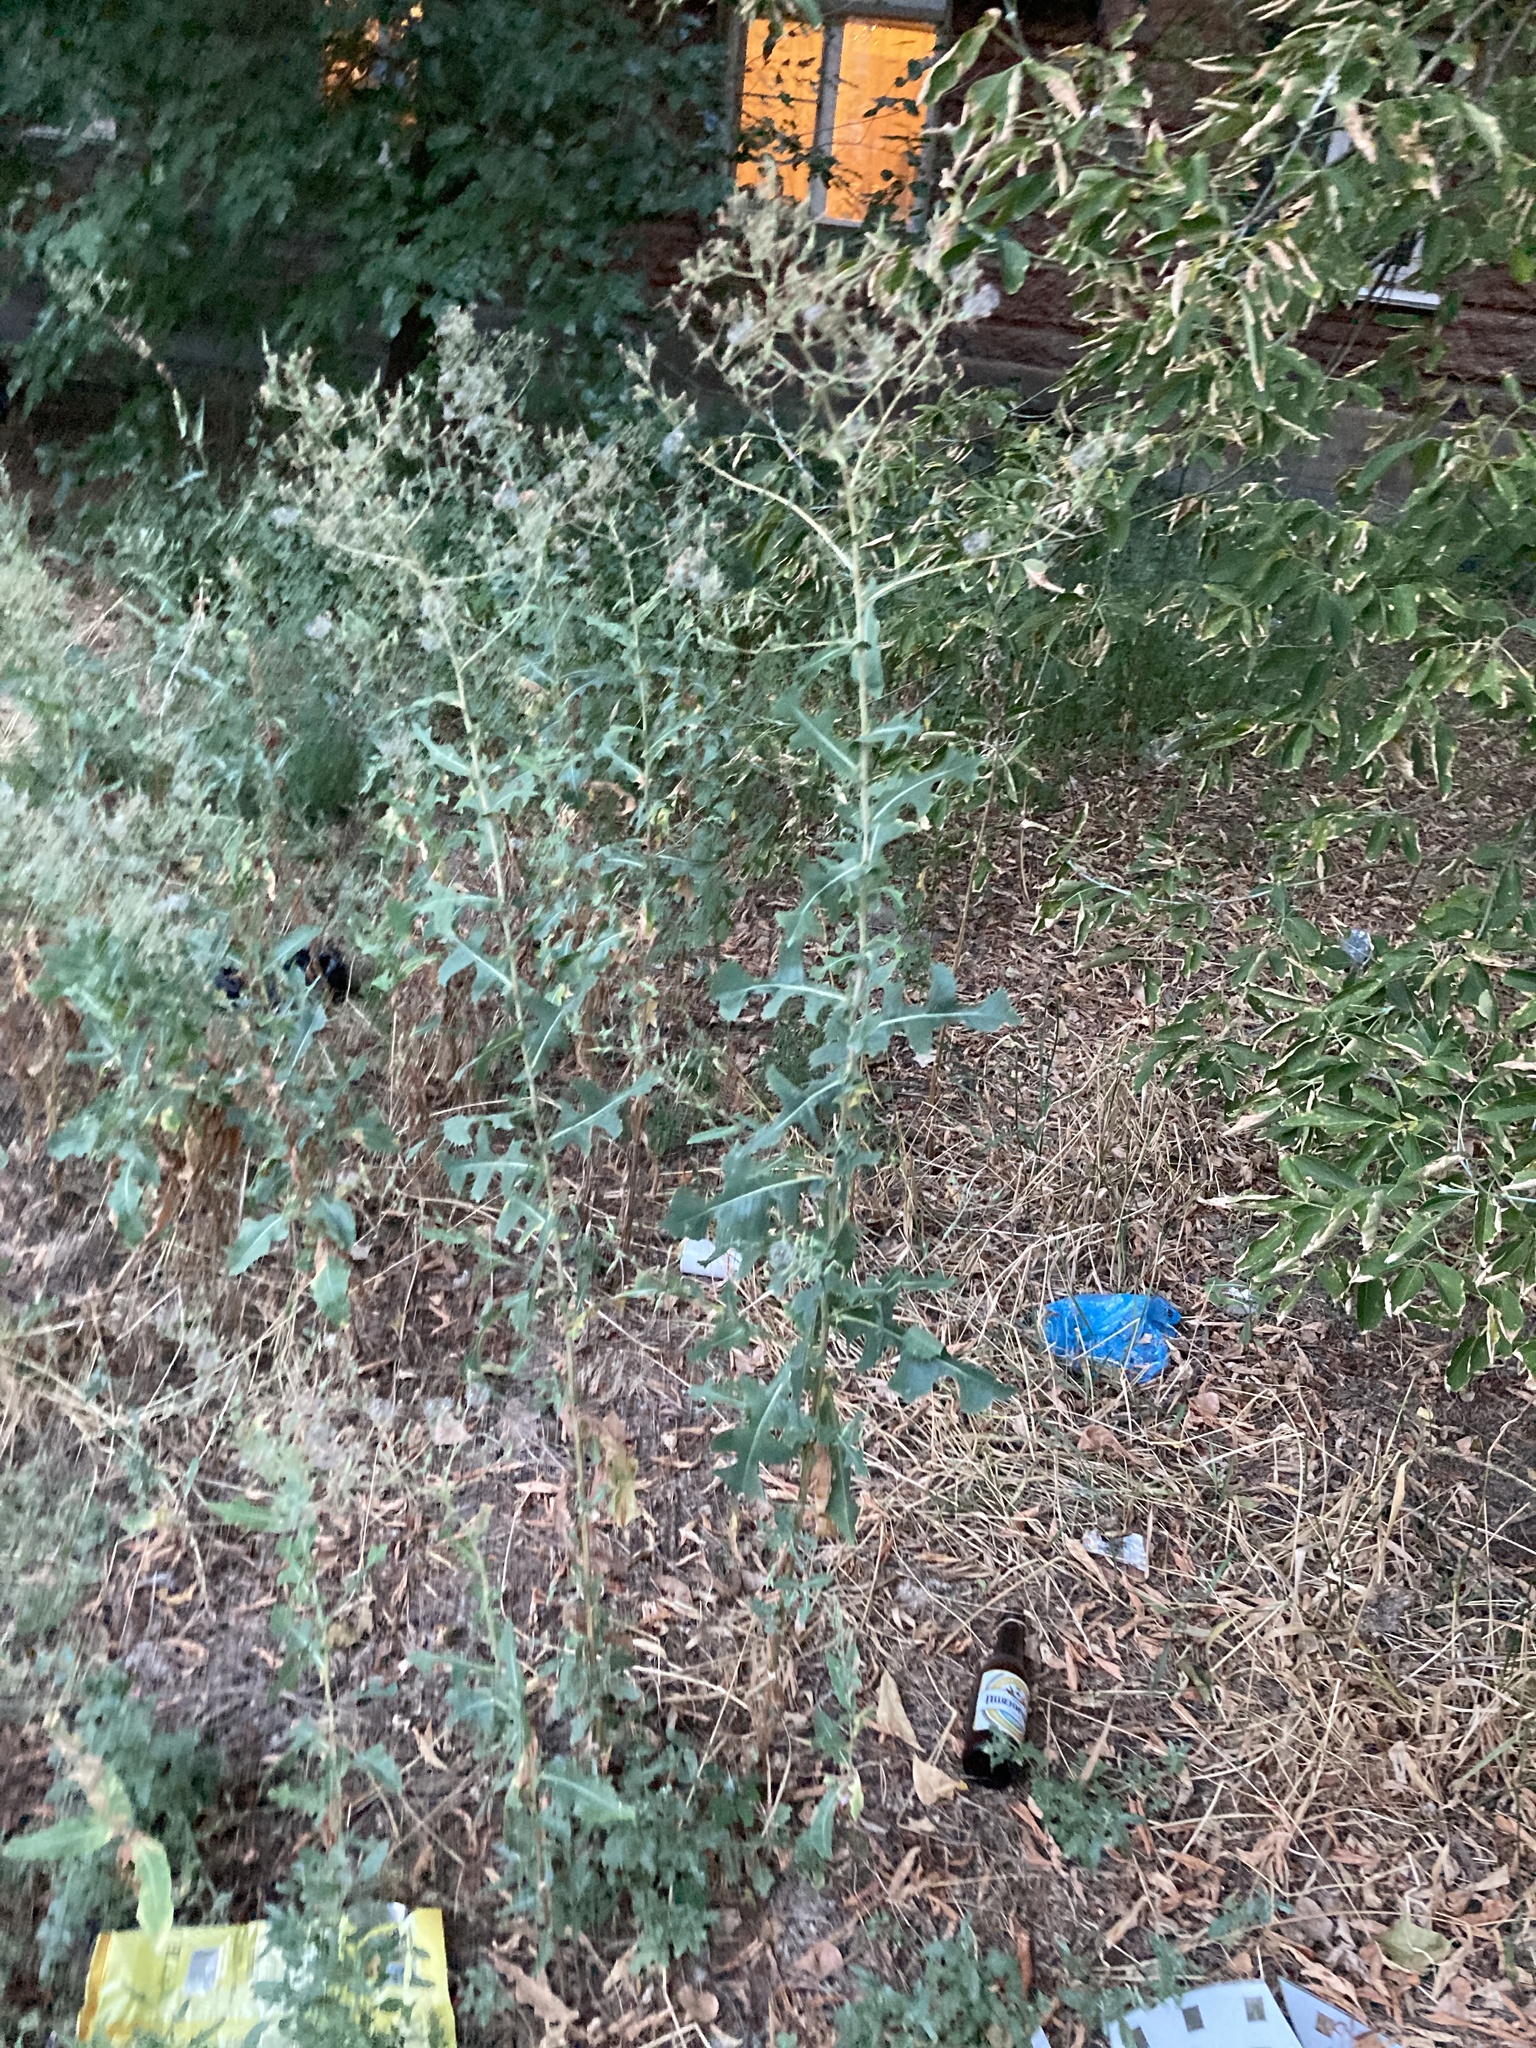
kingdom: Plantae
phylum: Tracheophyta
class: Magnoliopsida
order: Asterales
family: Asteraceae
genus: Lactuca
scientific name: Lactuca serriola
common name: Prickly lettuce
